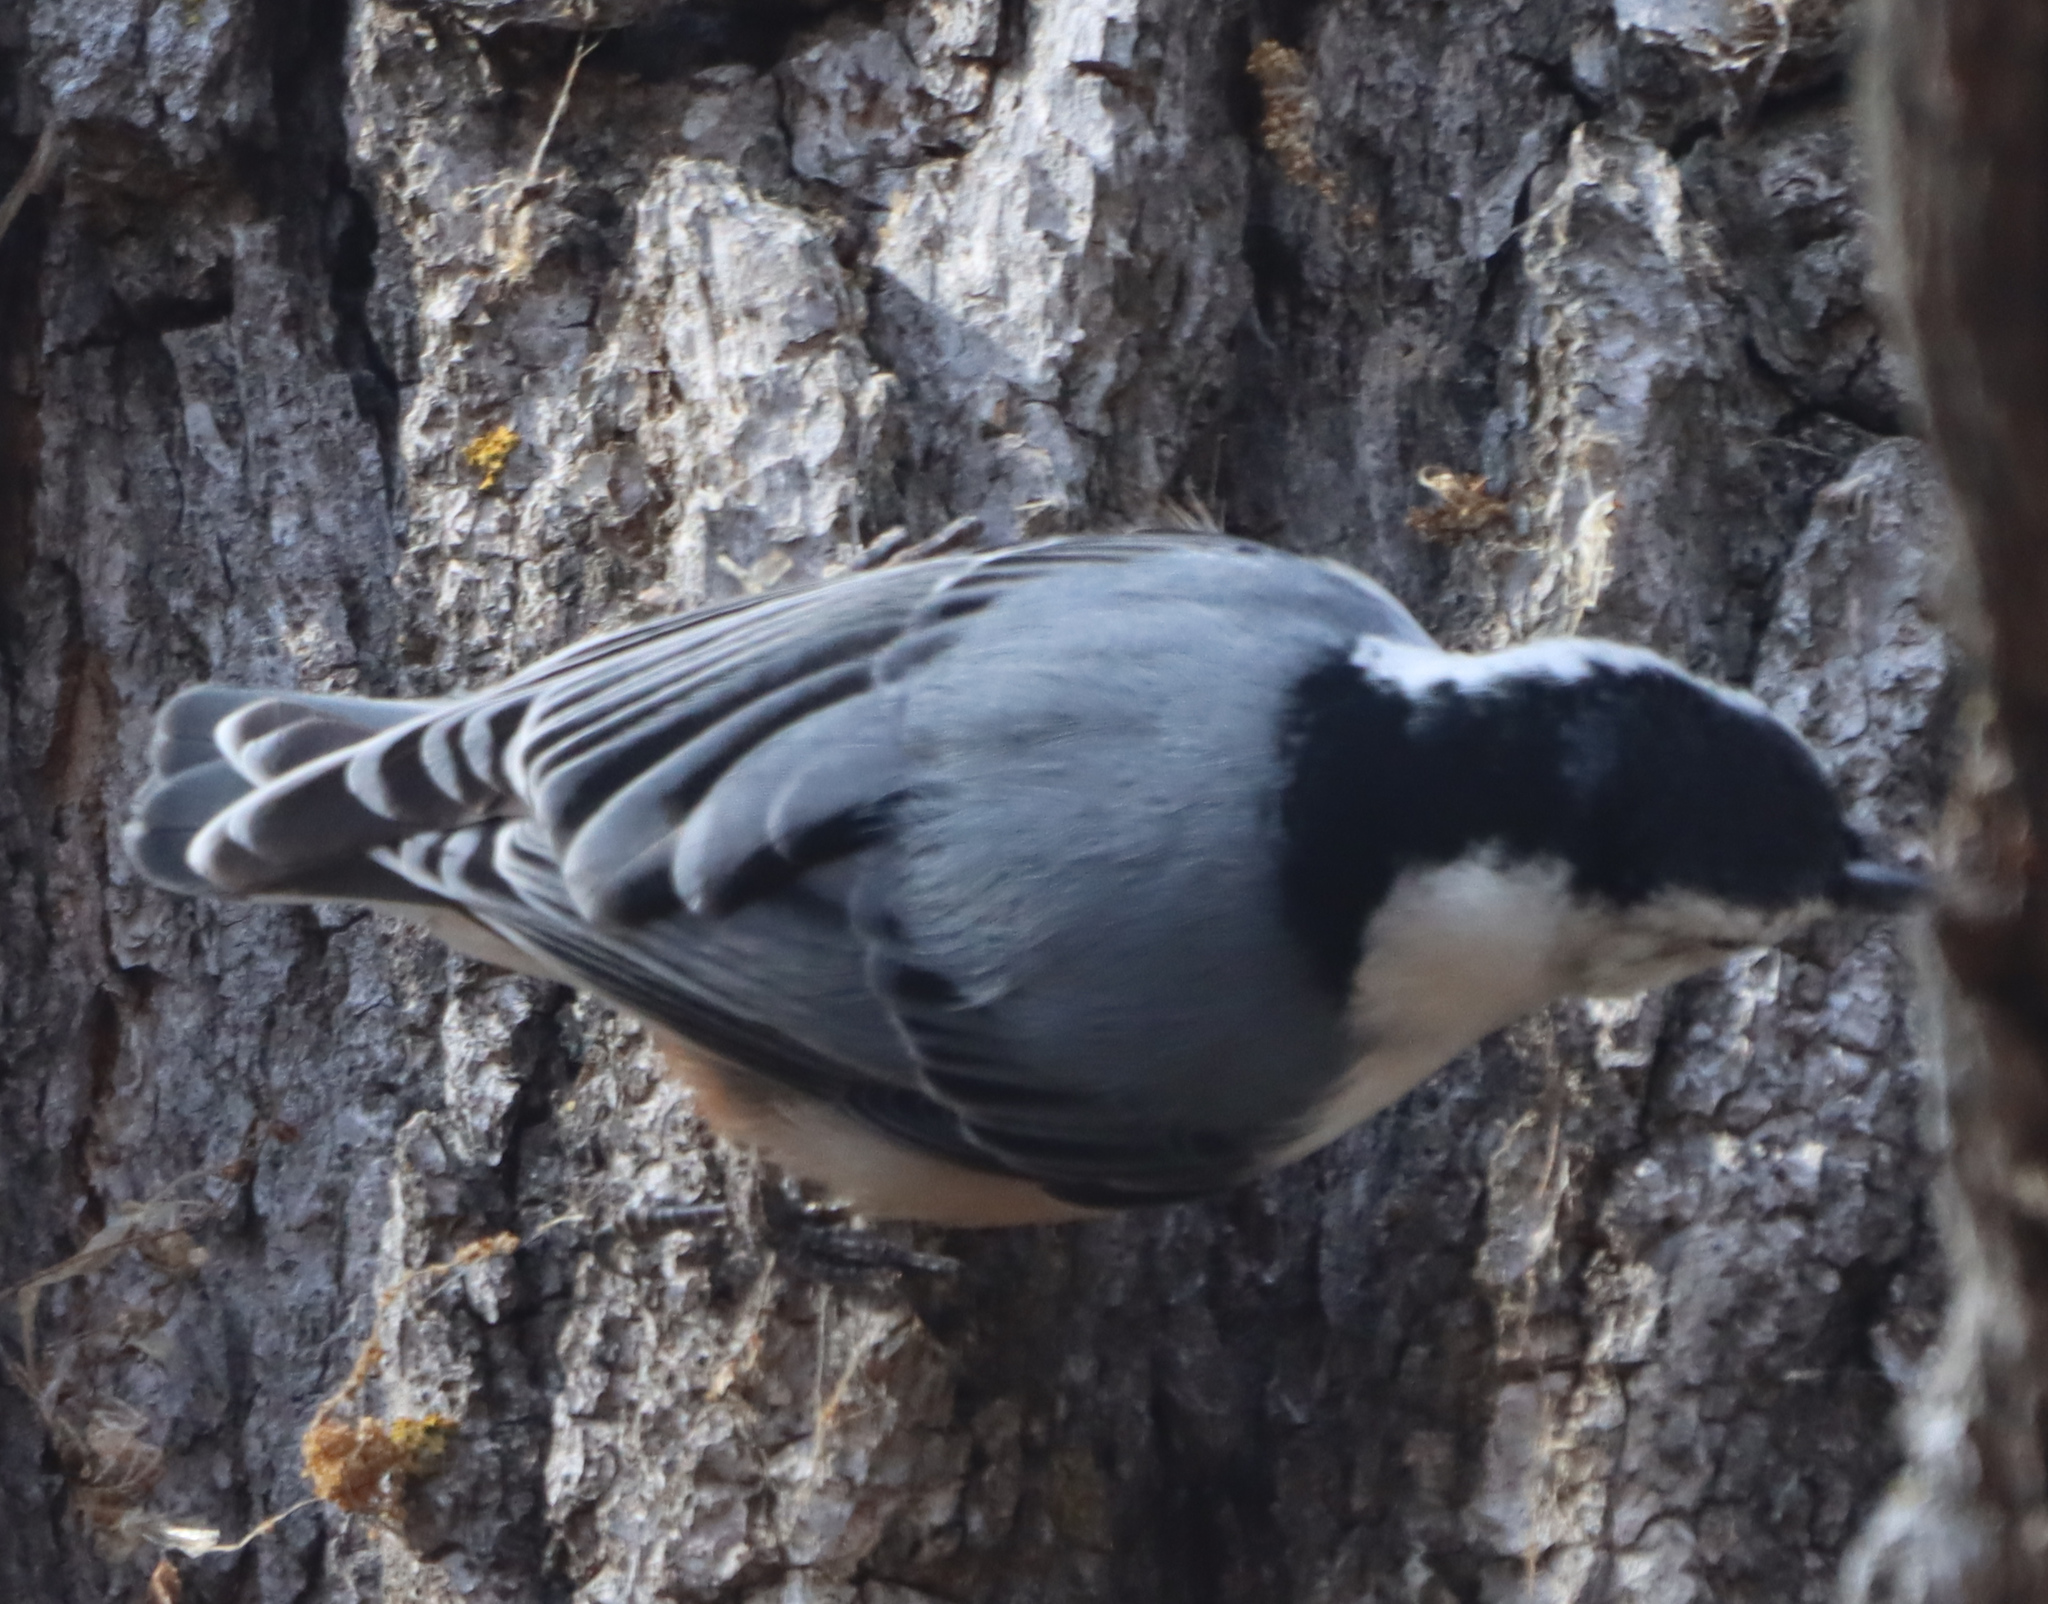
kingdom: Animalia
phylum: Chordata
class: Aves
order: Passeriformes
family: Sittidae
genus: Sitta
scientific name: Sitta carolinensis
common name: White-breasted nuthatch
